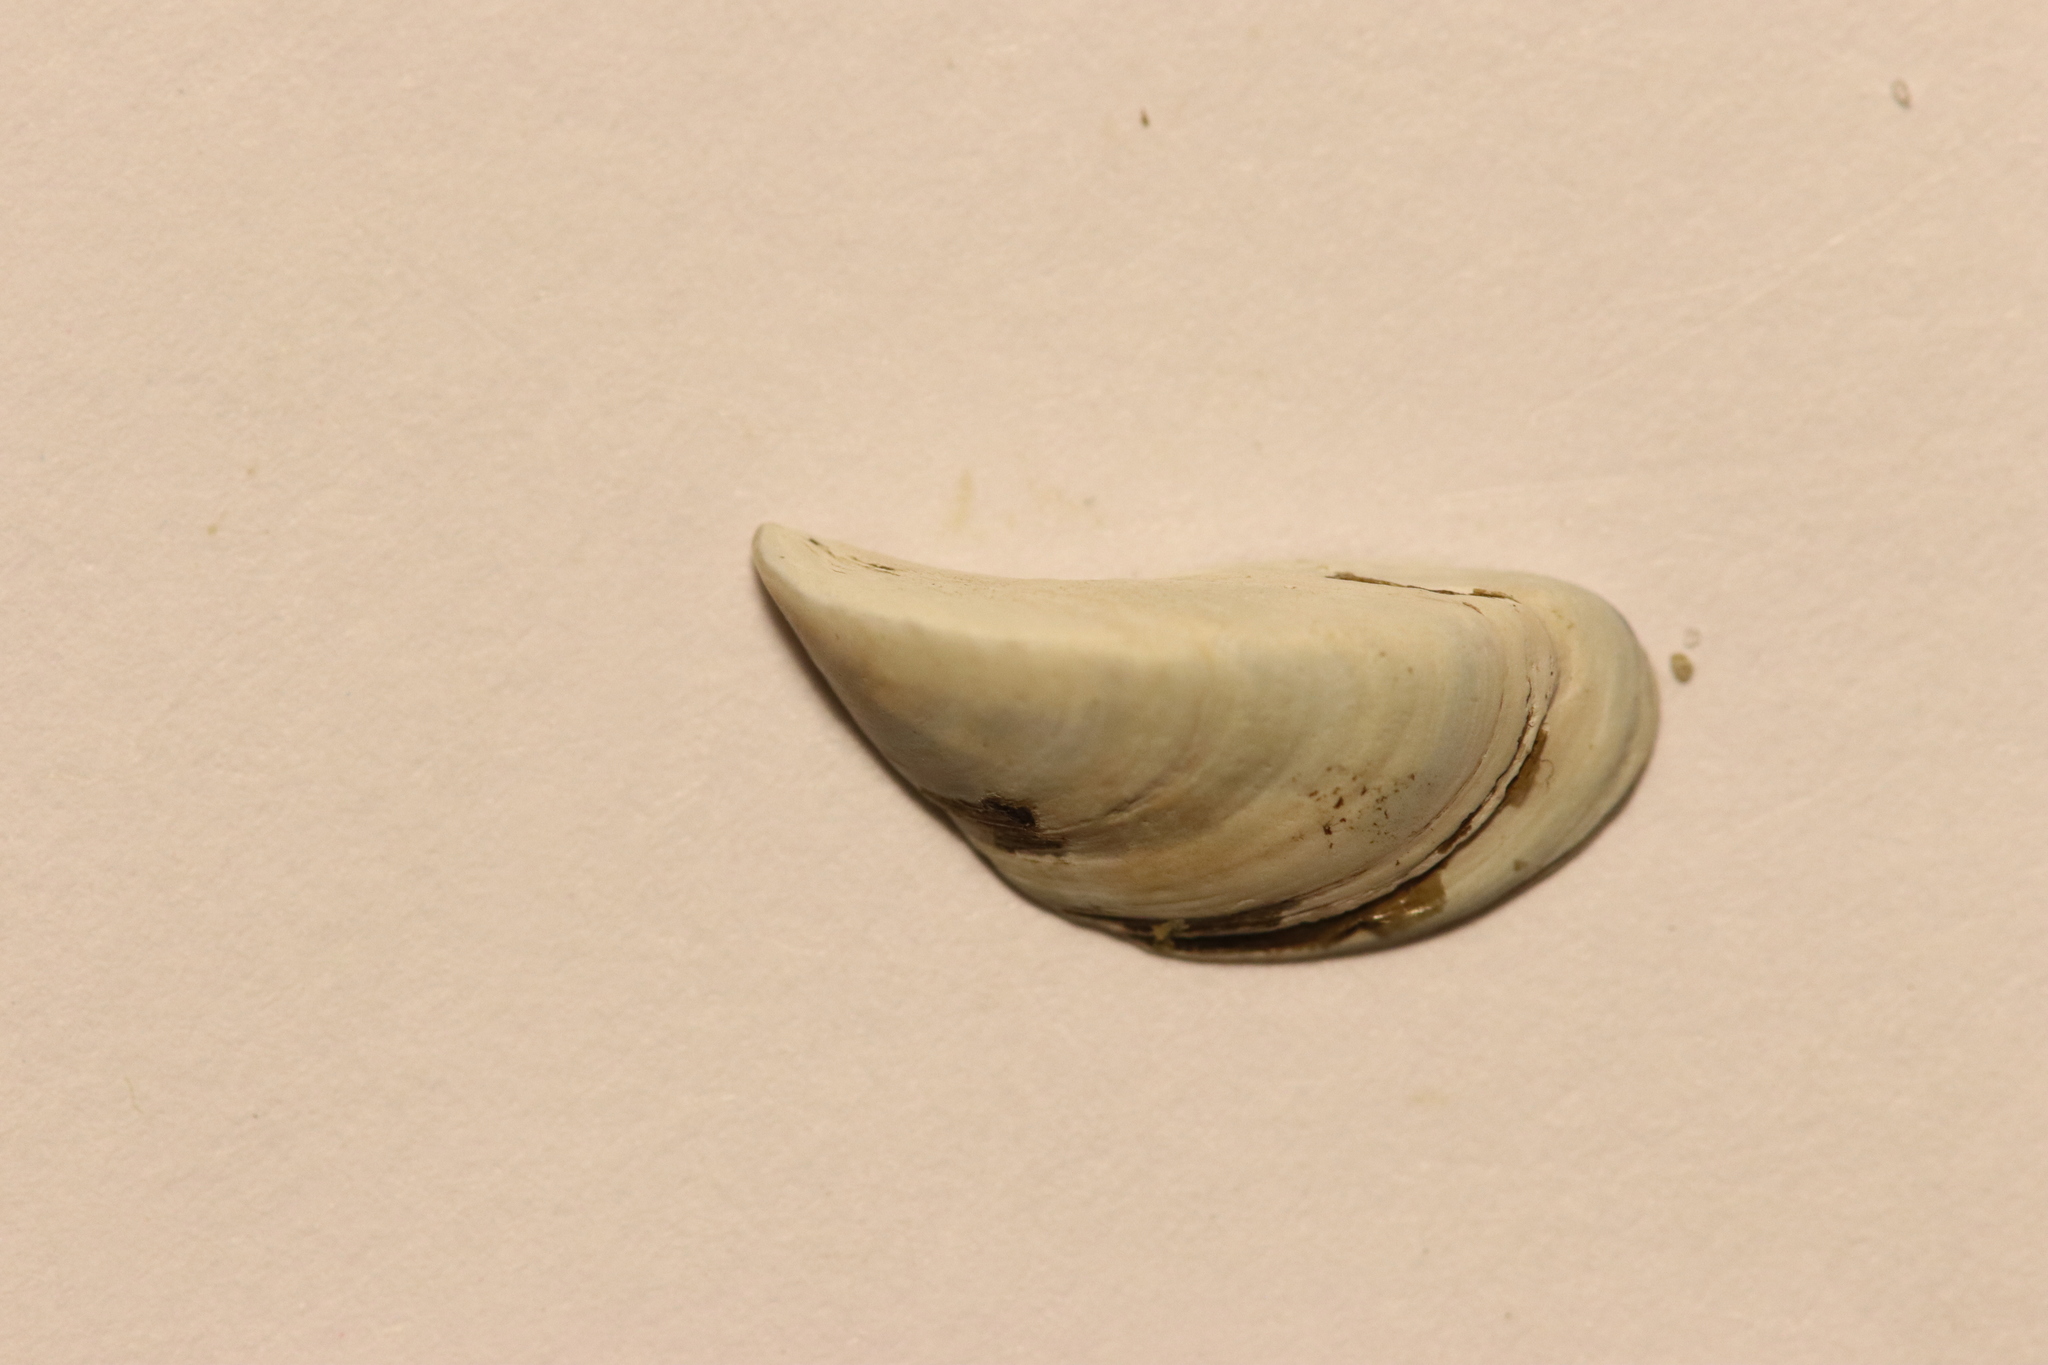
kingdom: Animalia
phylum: Mollusca
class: Bivalvia
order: Myida
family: Dreissenidae
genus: Dreissena
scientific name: Dreissena polymorpha
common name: Zebra mussel
